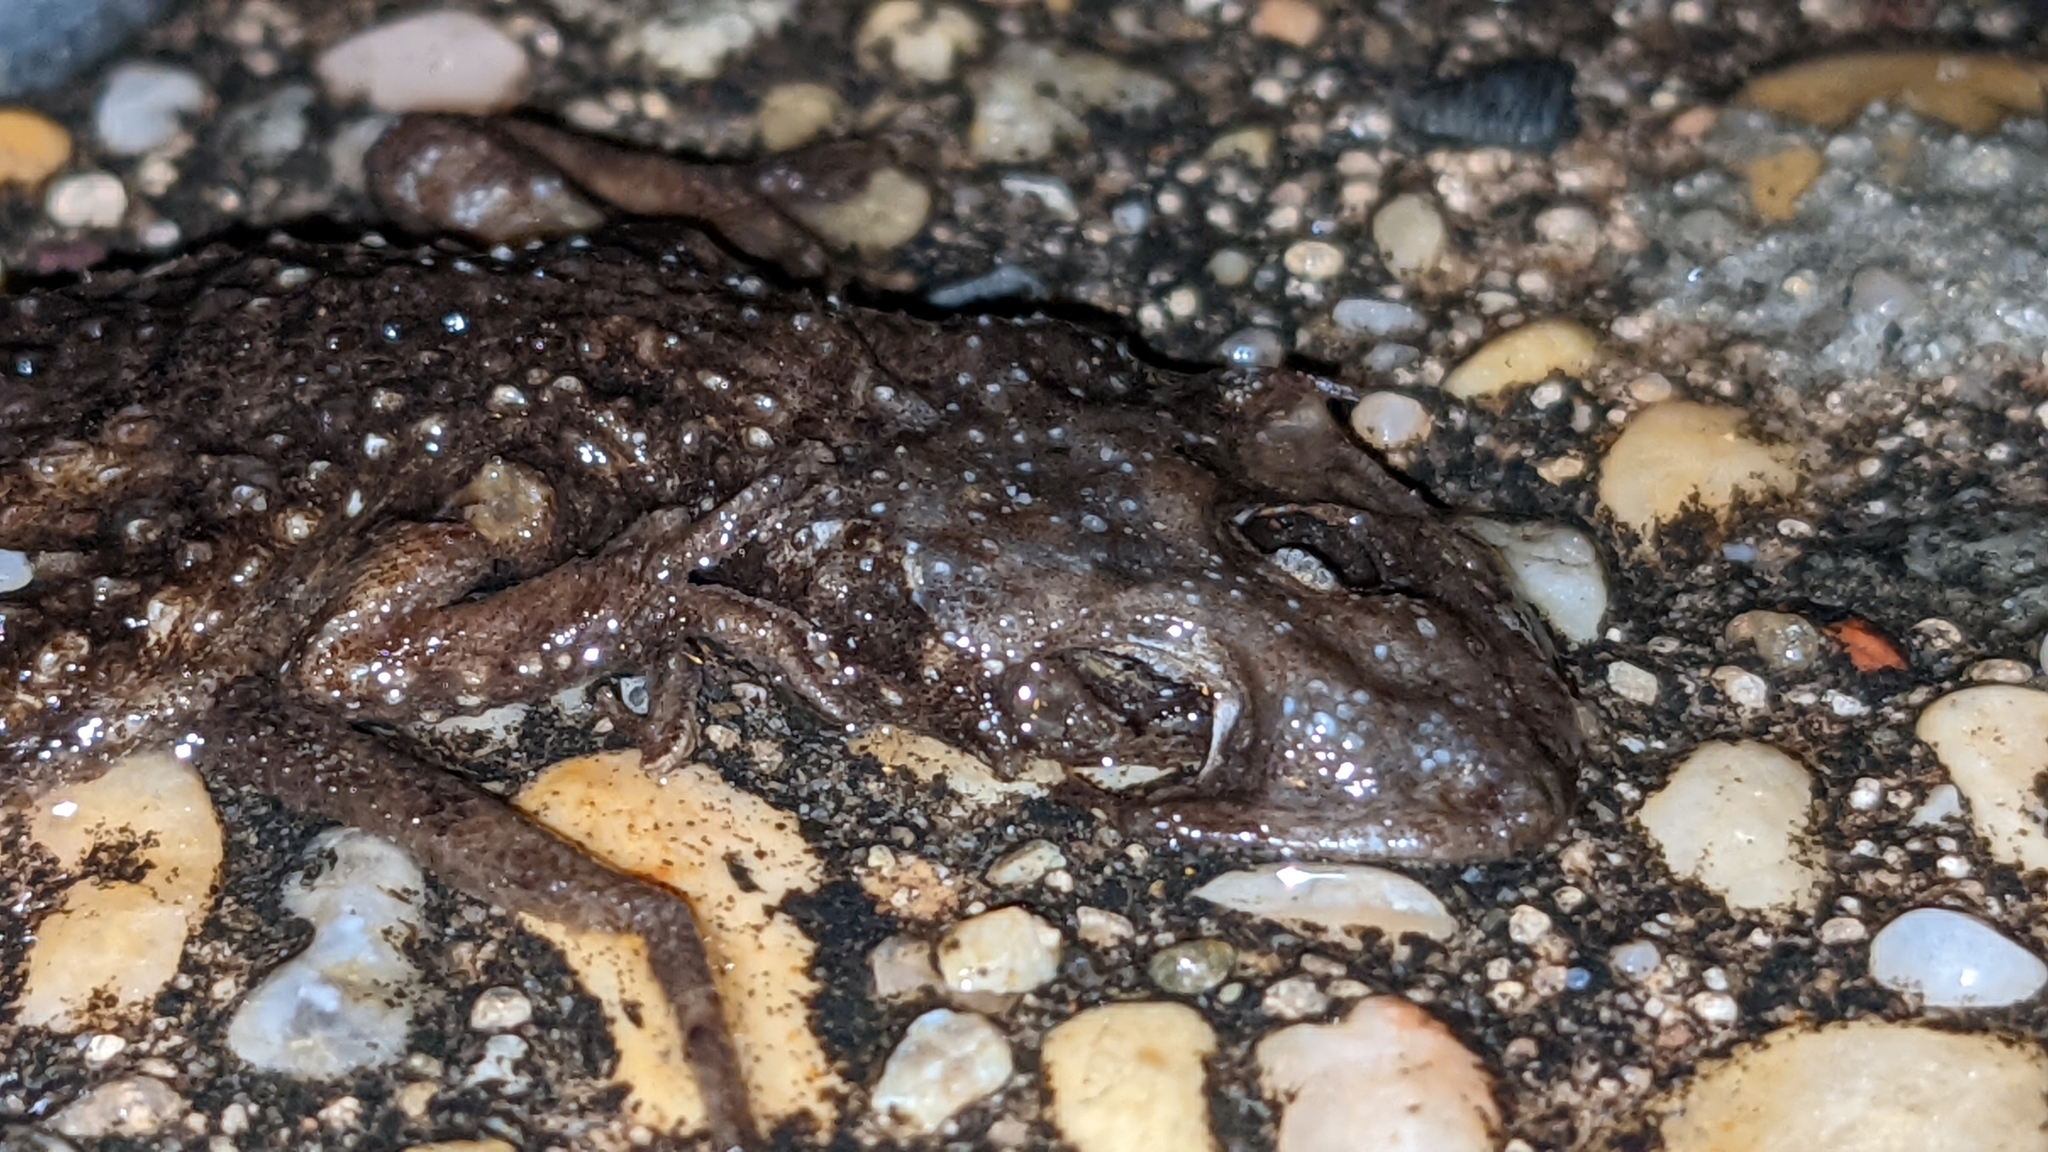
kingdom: Animalia
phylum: Chordata
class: Squamata
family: Gekkonidae
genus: Hemidactylus
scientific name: Hemidactylus turcicus
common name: Turkish gecko
